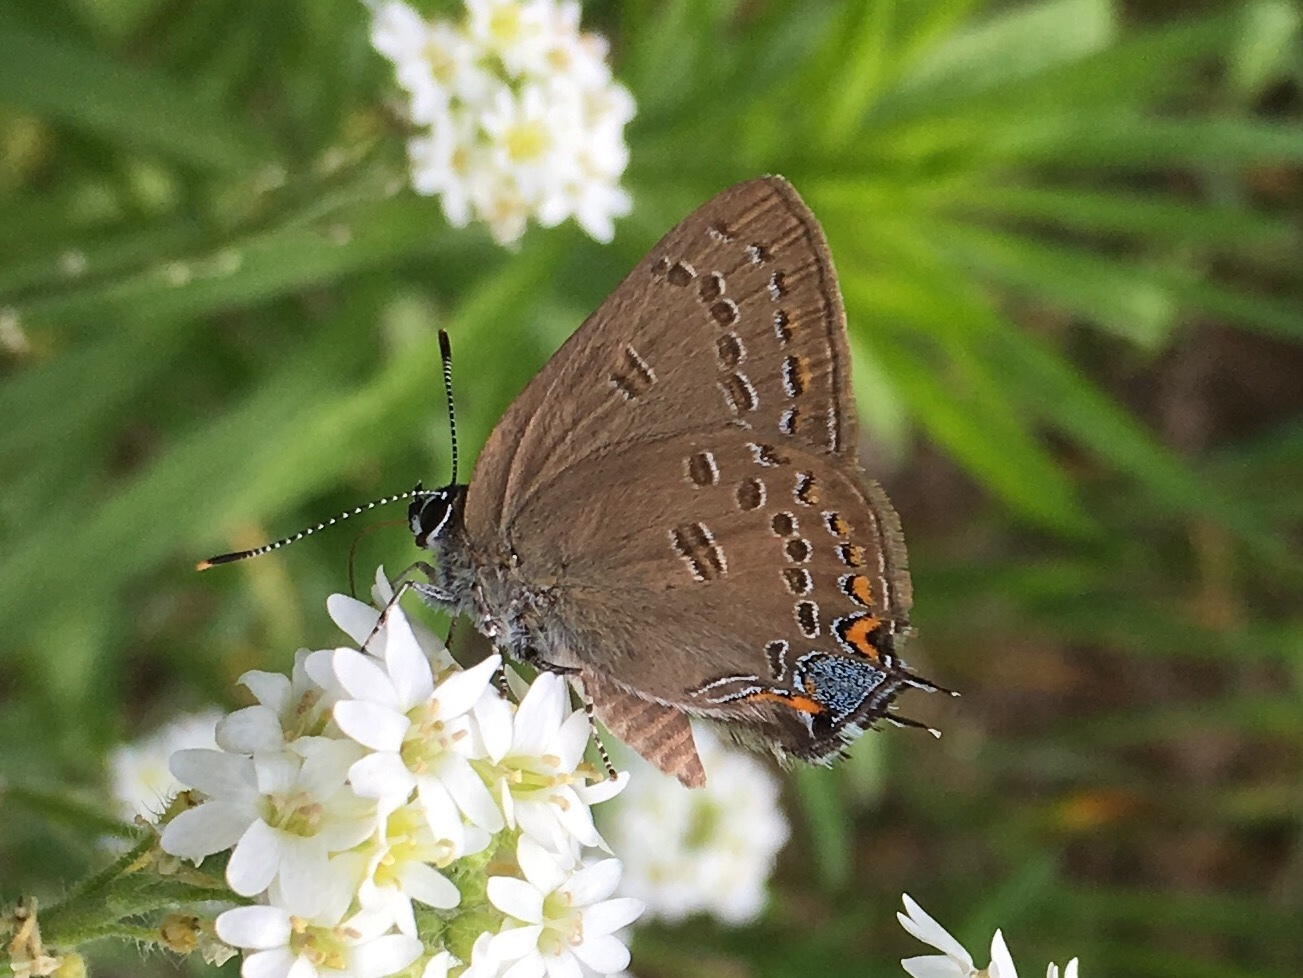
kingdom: Animalia
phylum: Arthropoda
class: Insecta
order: Lepidoptera
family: Lycaenidae
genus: Satyrium
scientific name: Satyrium edwardsii
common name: Edwards' hairstreak
